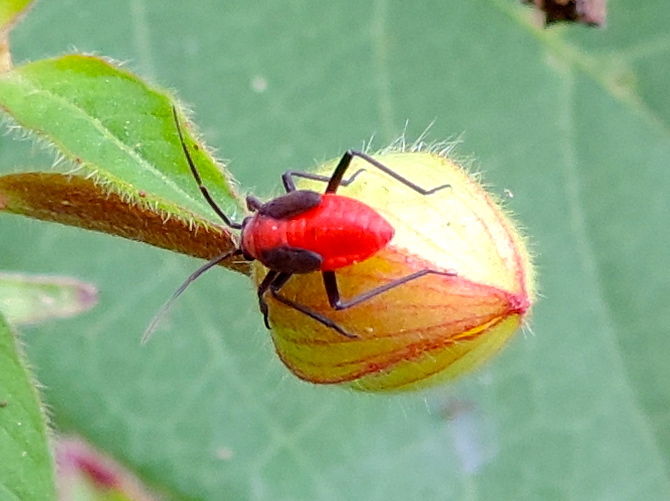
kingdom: Animalia
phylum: Arthropoda
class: Insecta
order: Hemiptera
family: Miridae
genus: Prepops
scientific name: Prepops
